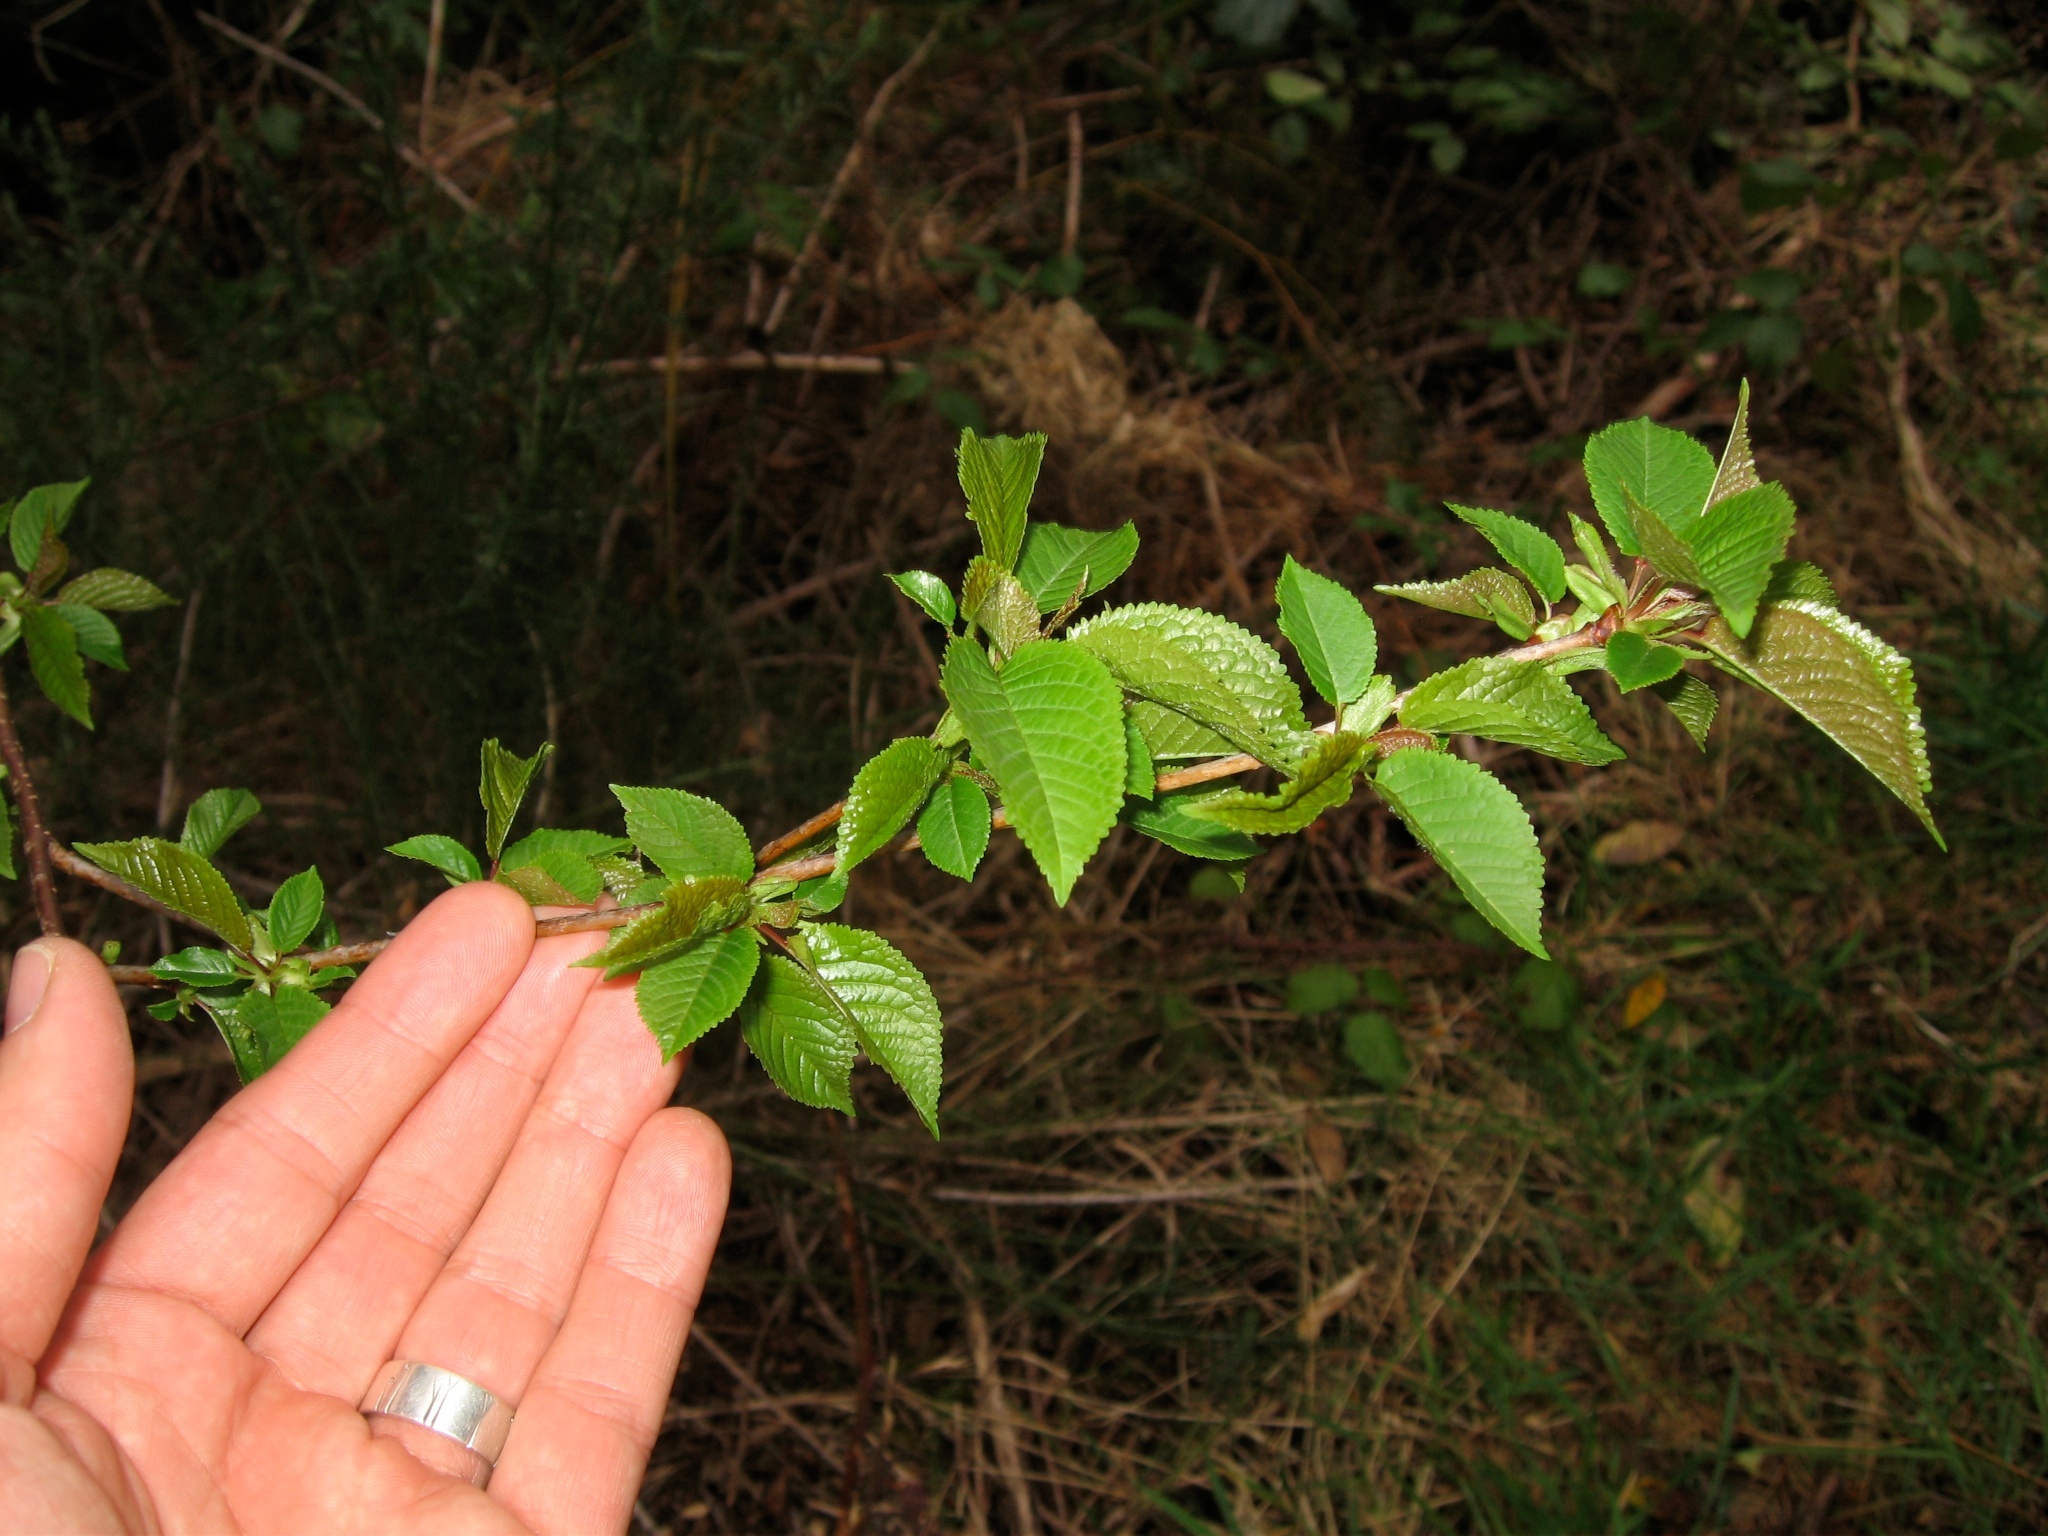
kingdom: Plantae
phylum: Tracheophyta
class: Magnoliopsida
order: Rosales
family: Rosaceae
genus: Prunus
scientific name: Prunus avium
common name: Sweet cherry
